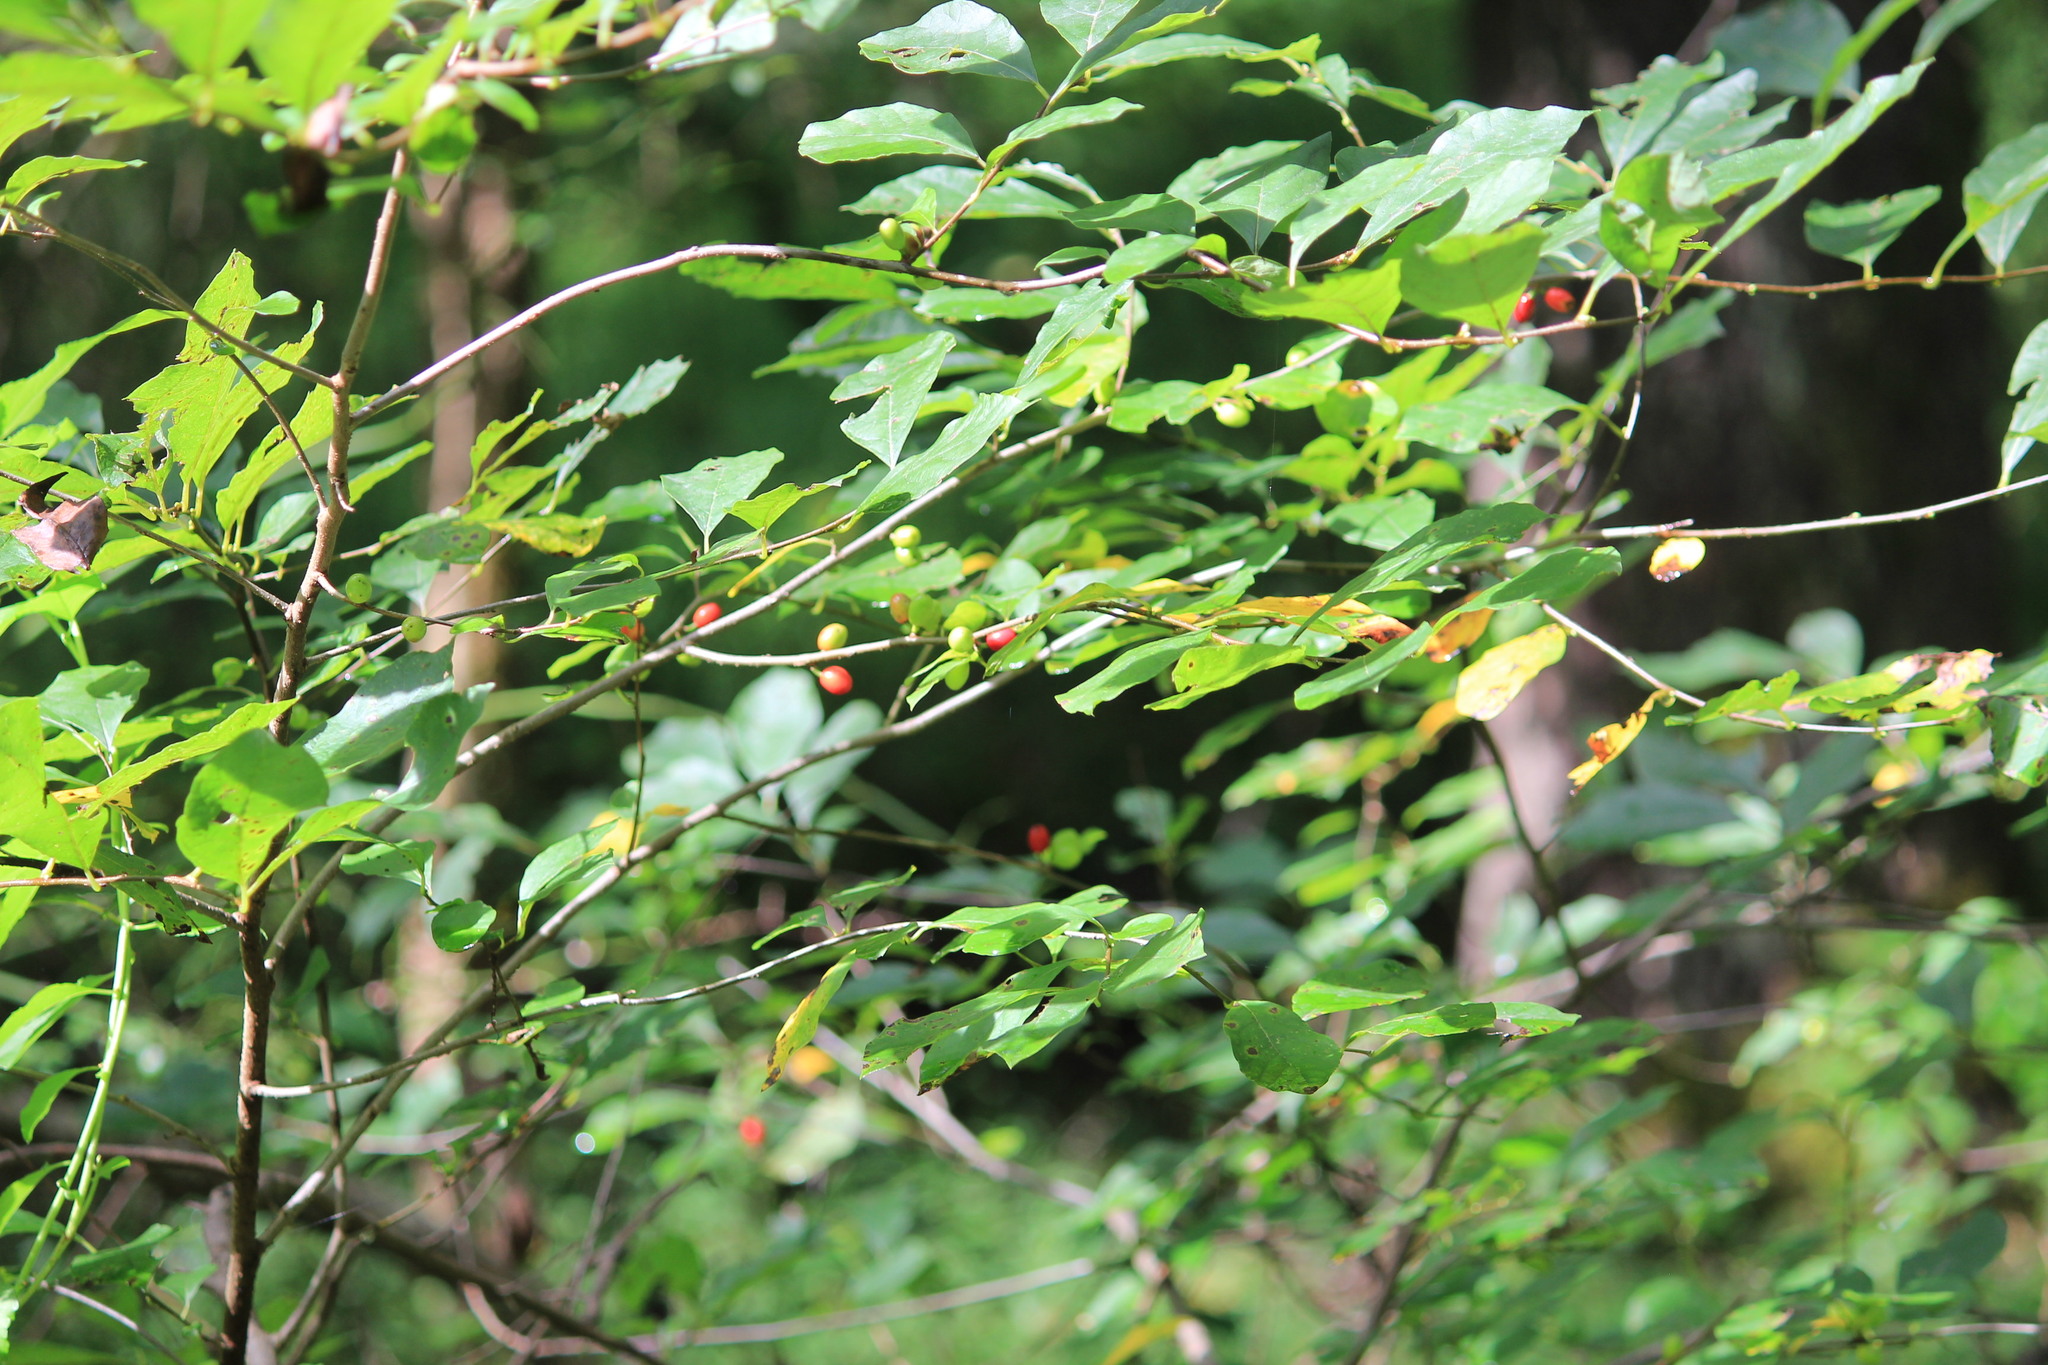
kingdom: Plantae
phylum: Tracheophyta
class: Magnoliopsida
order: Laurales
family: Lauraceae
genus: Lindera
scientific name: Lindera benzoin
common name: Spicebush
